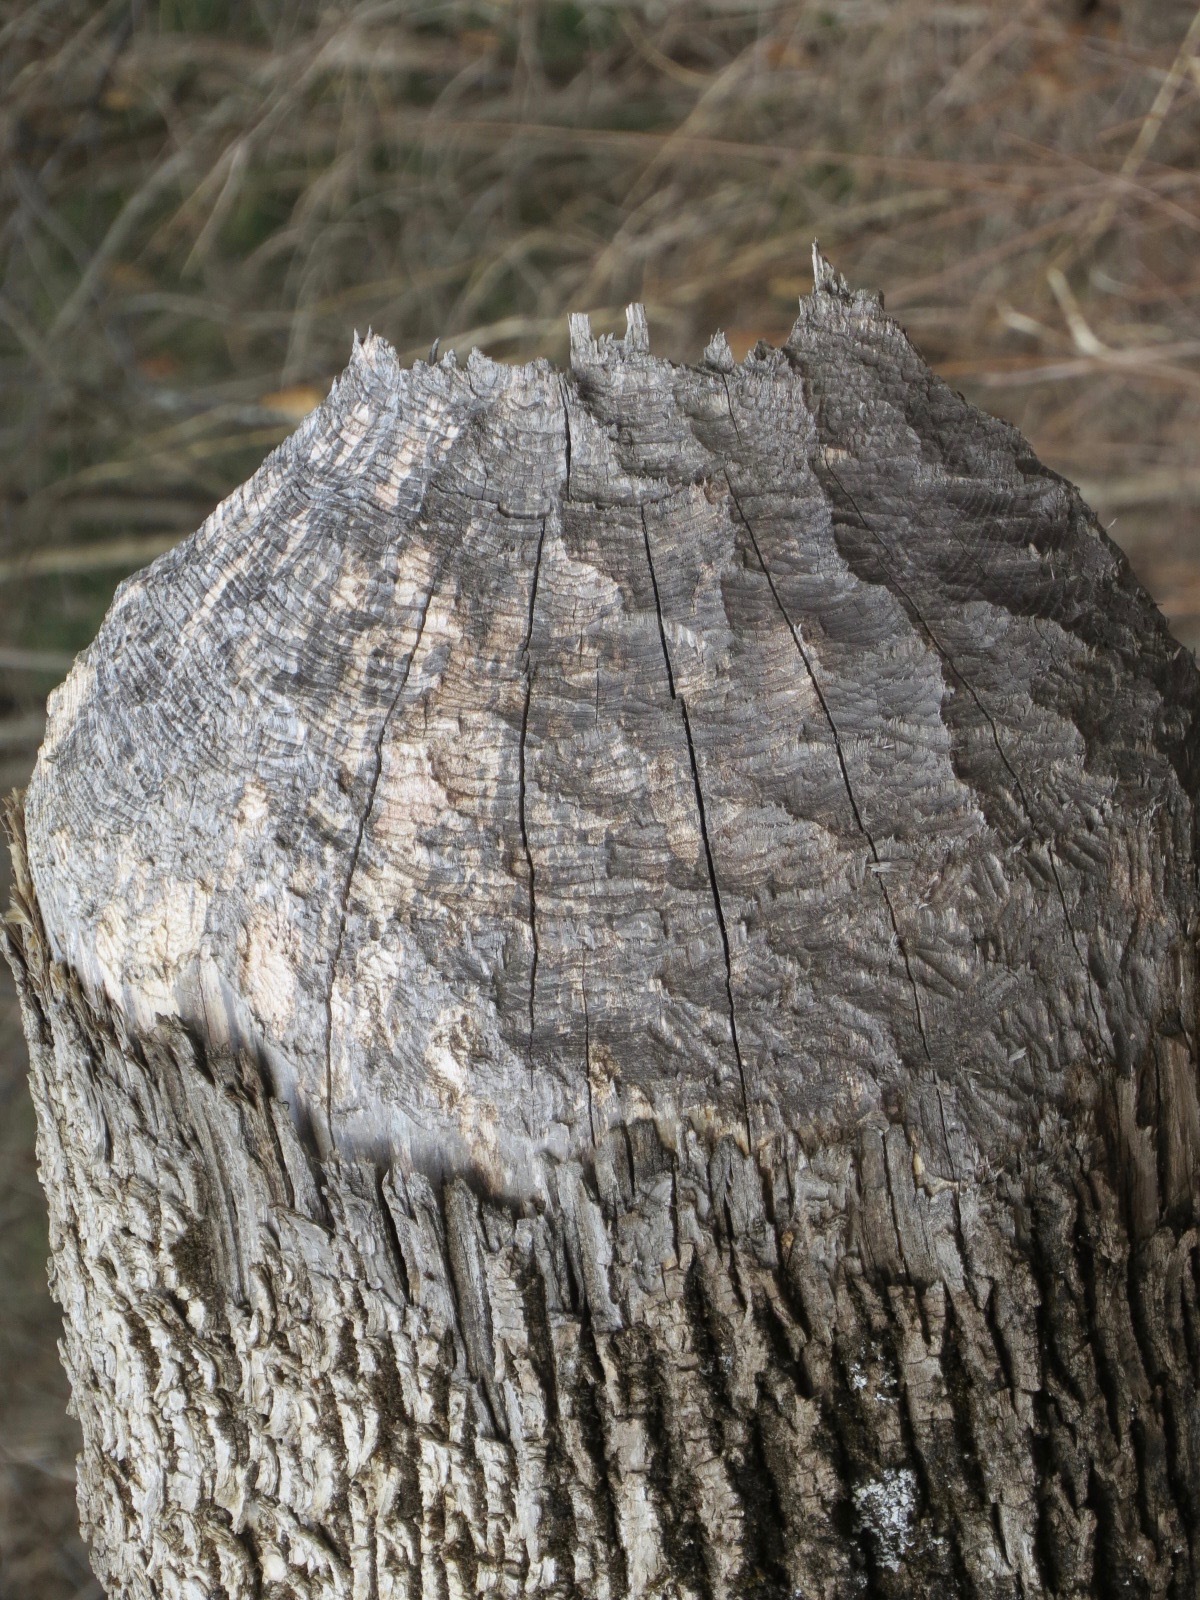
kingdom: Animalia
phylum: Chordata
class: Mammalia
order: Rodentia
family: Castoridae
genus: Castor
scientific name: Castor canadensis
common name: American beaver
